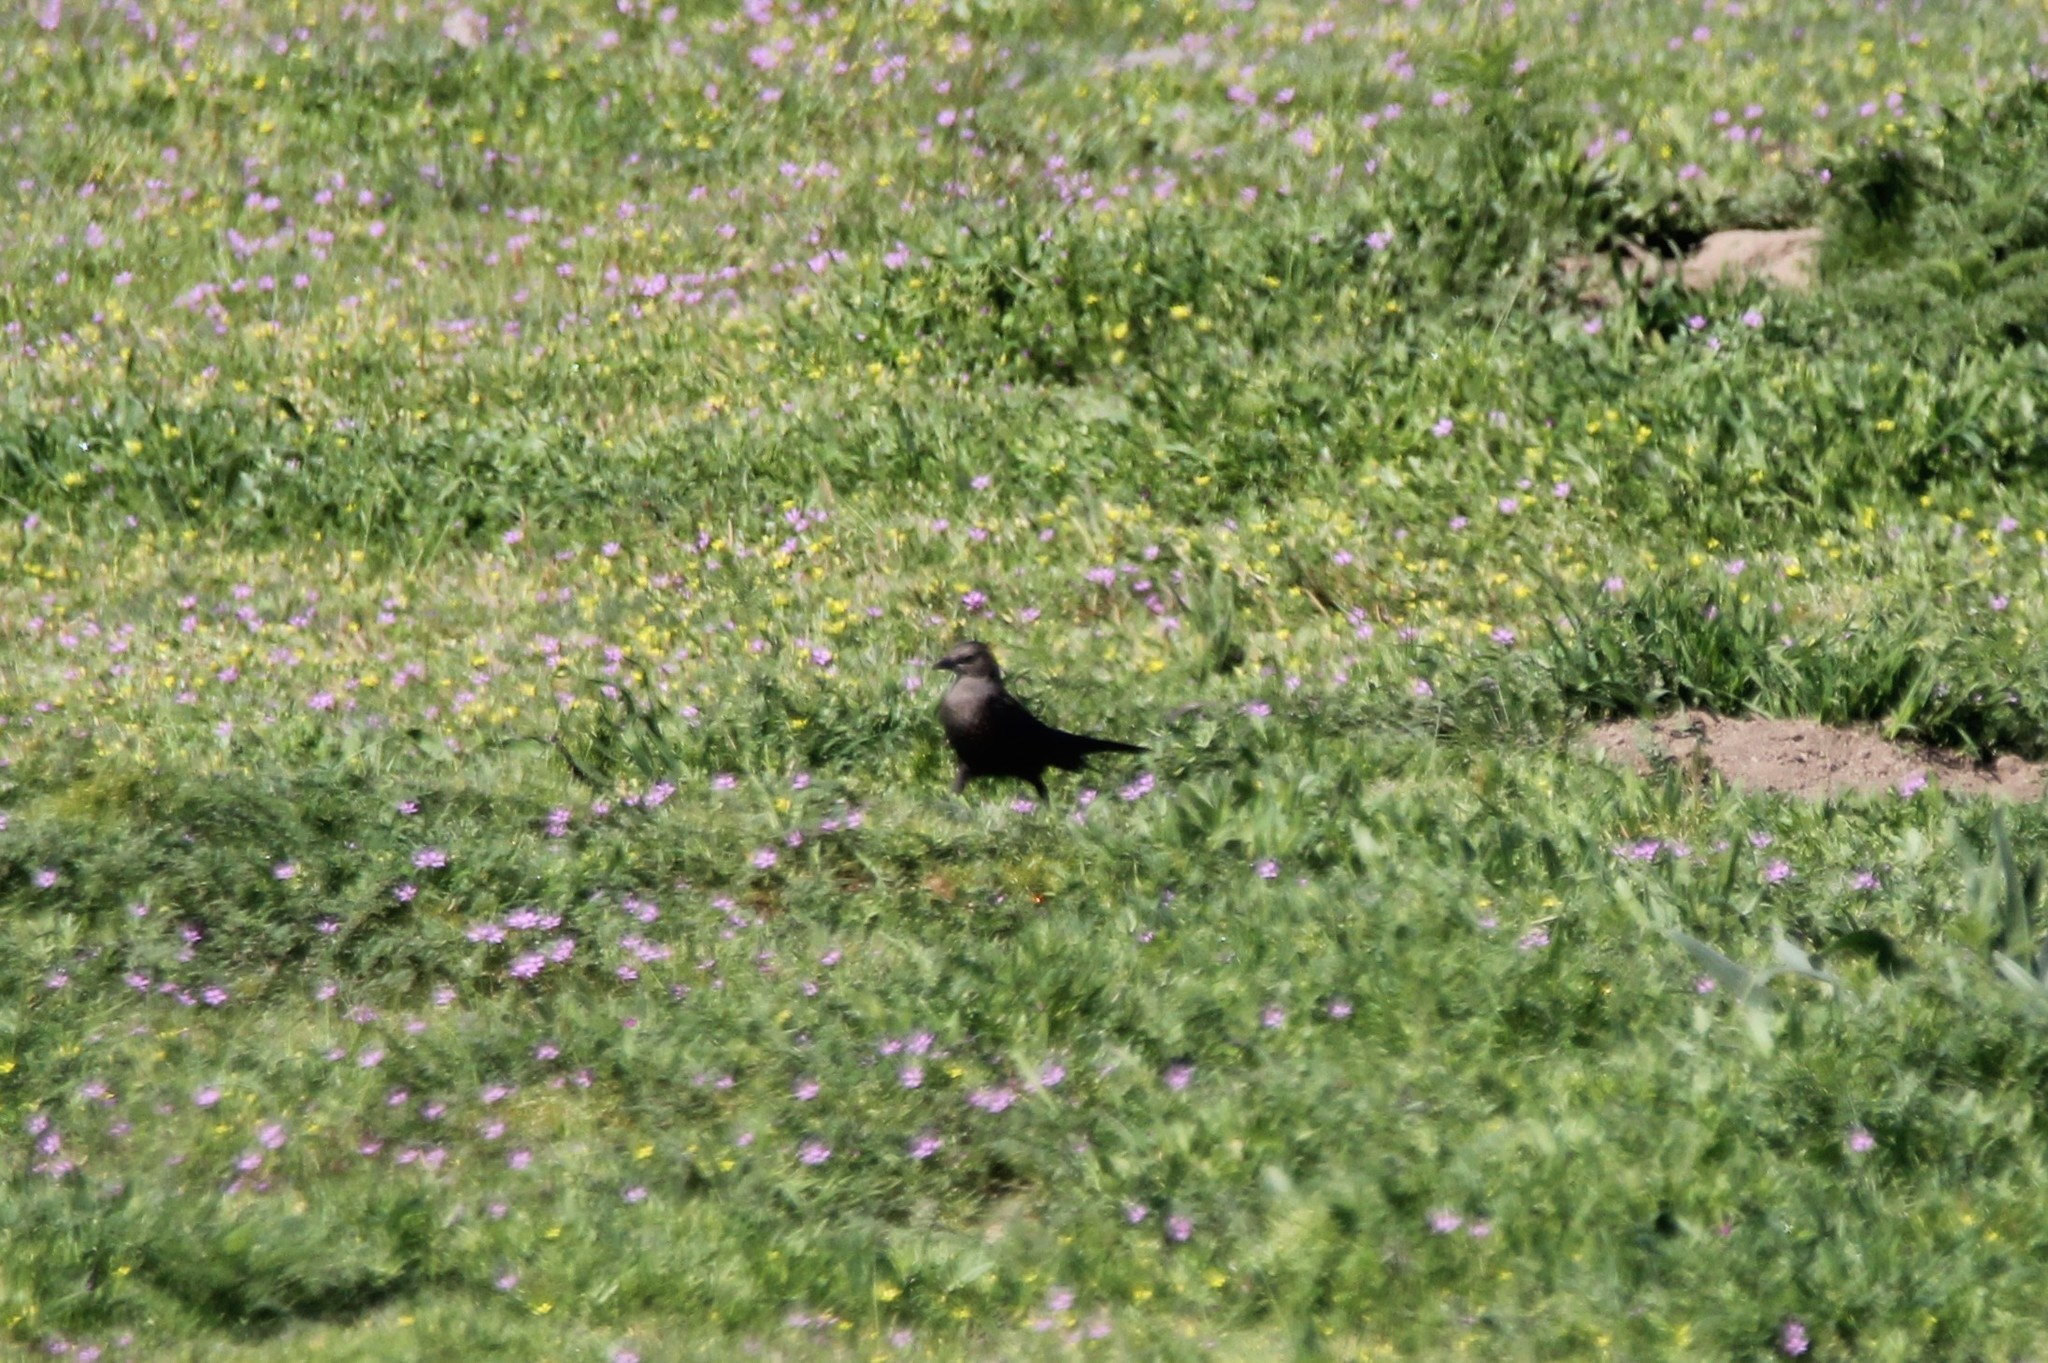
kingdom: Animalia
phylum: Chordata
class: Aves
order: Passeriformes
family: Icteridae
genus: Euphagus
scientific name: Euphagus cyanocephalus
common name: Brewer's blackbird
